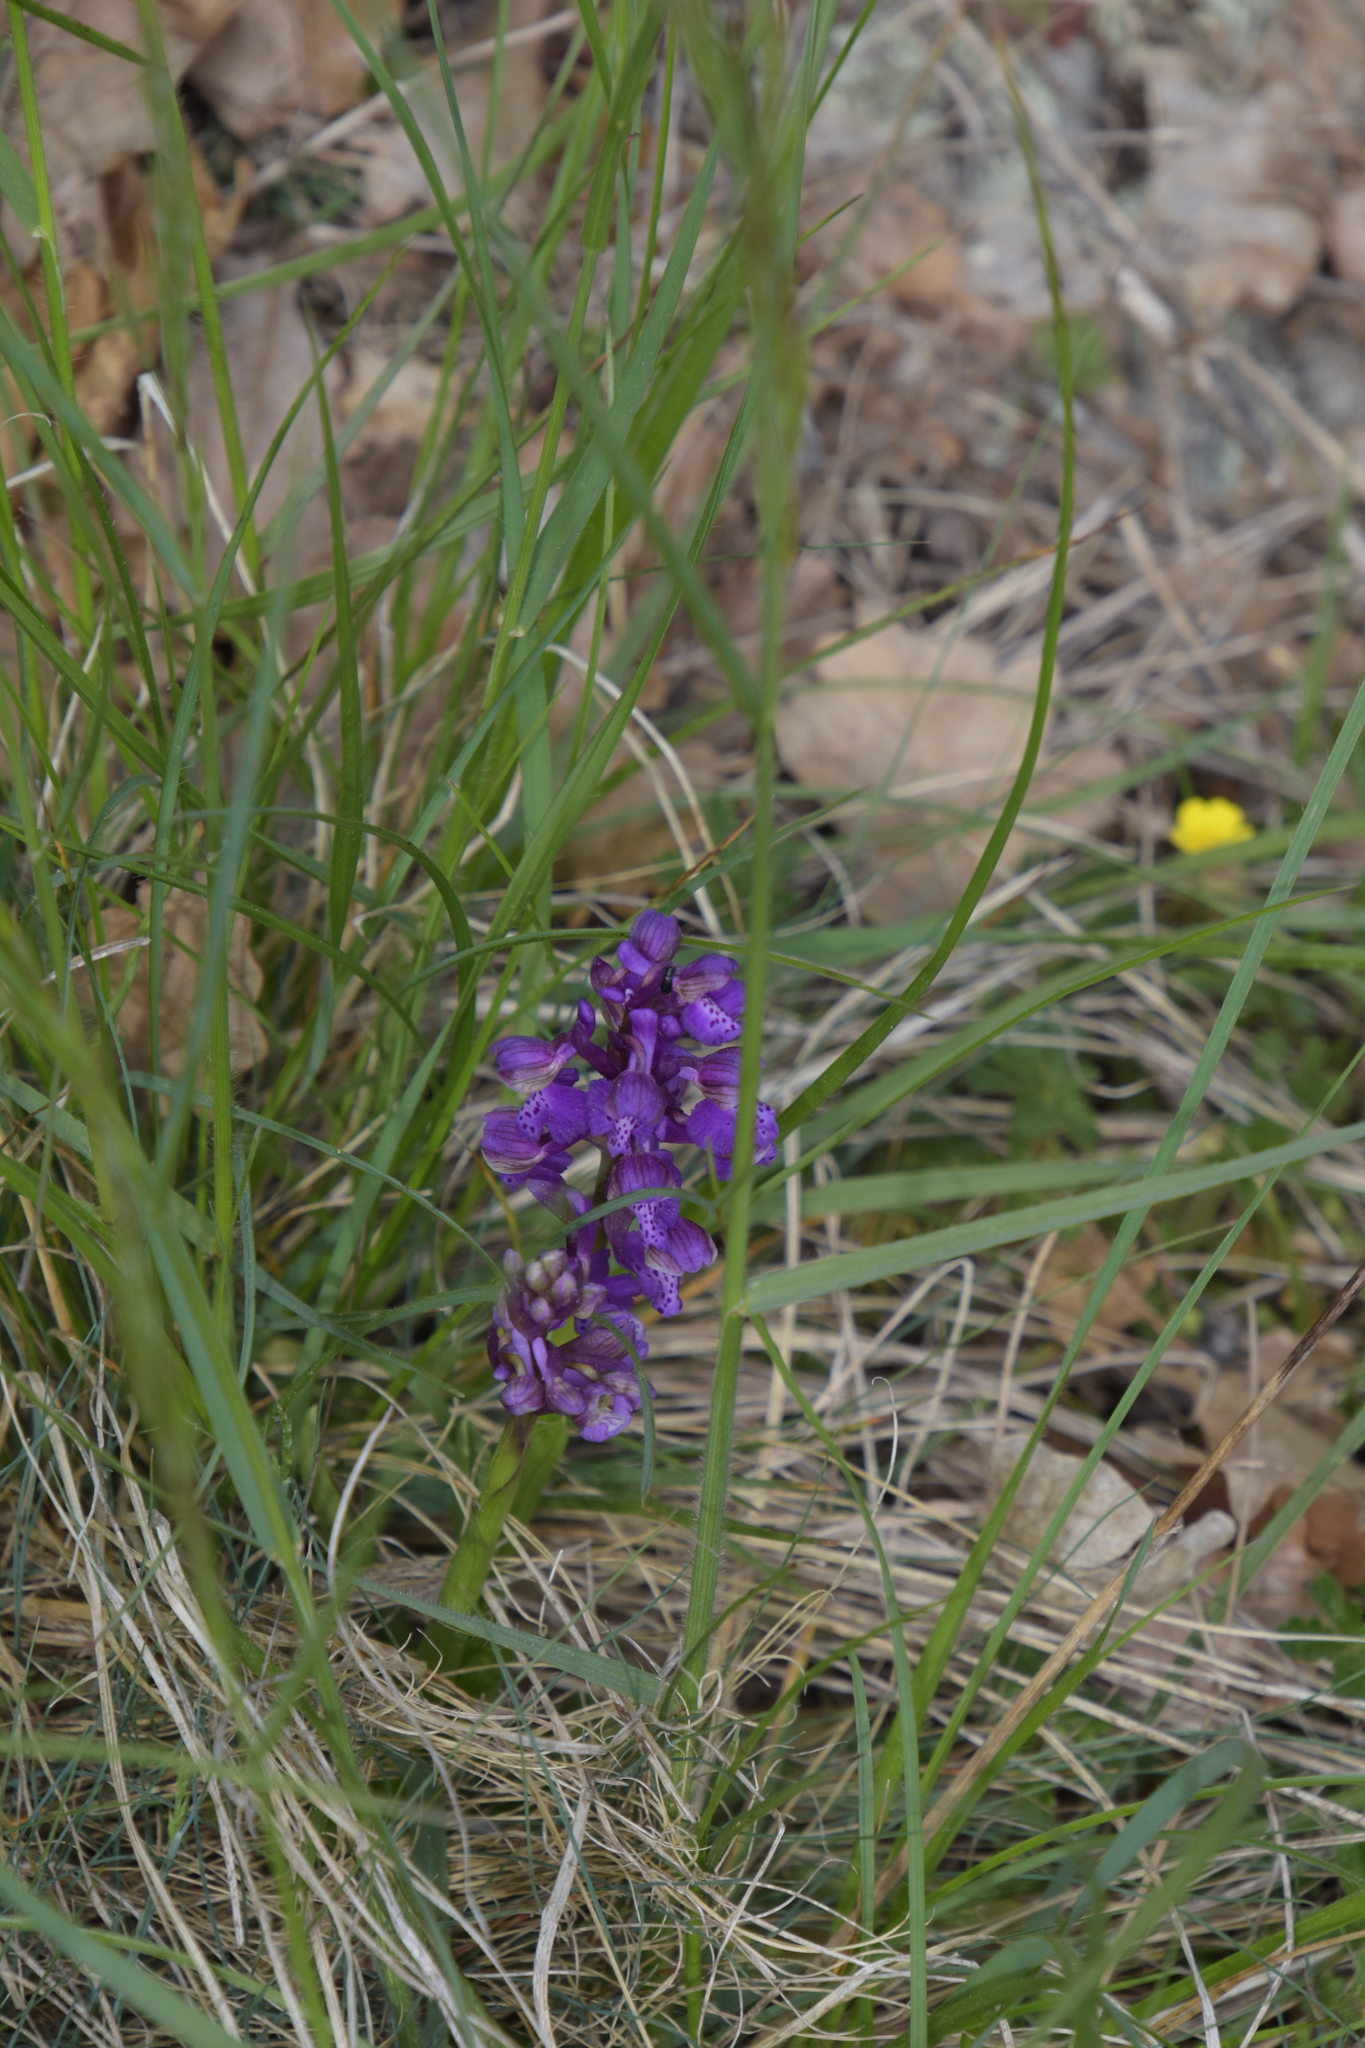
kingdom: Plantae
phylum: Tracheophyta
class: Liliopsida
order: Asparagales
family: Orchidaceae
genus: Anacamptis
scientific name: Anacamptis morio
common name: Green-winged orchid
